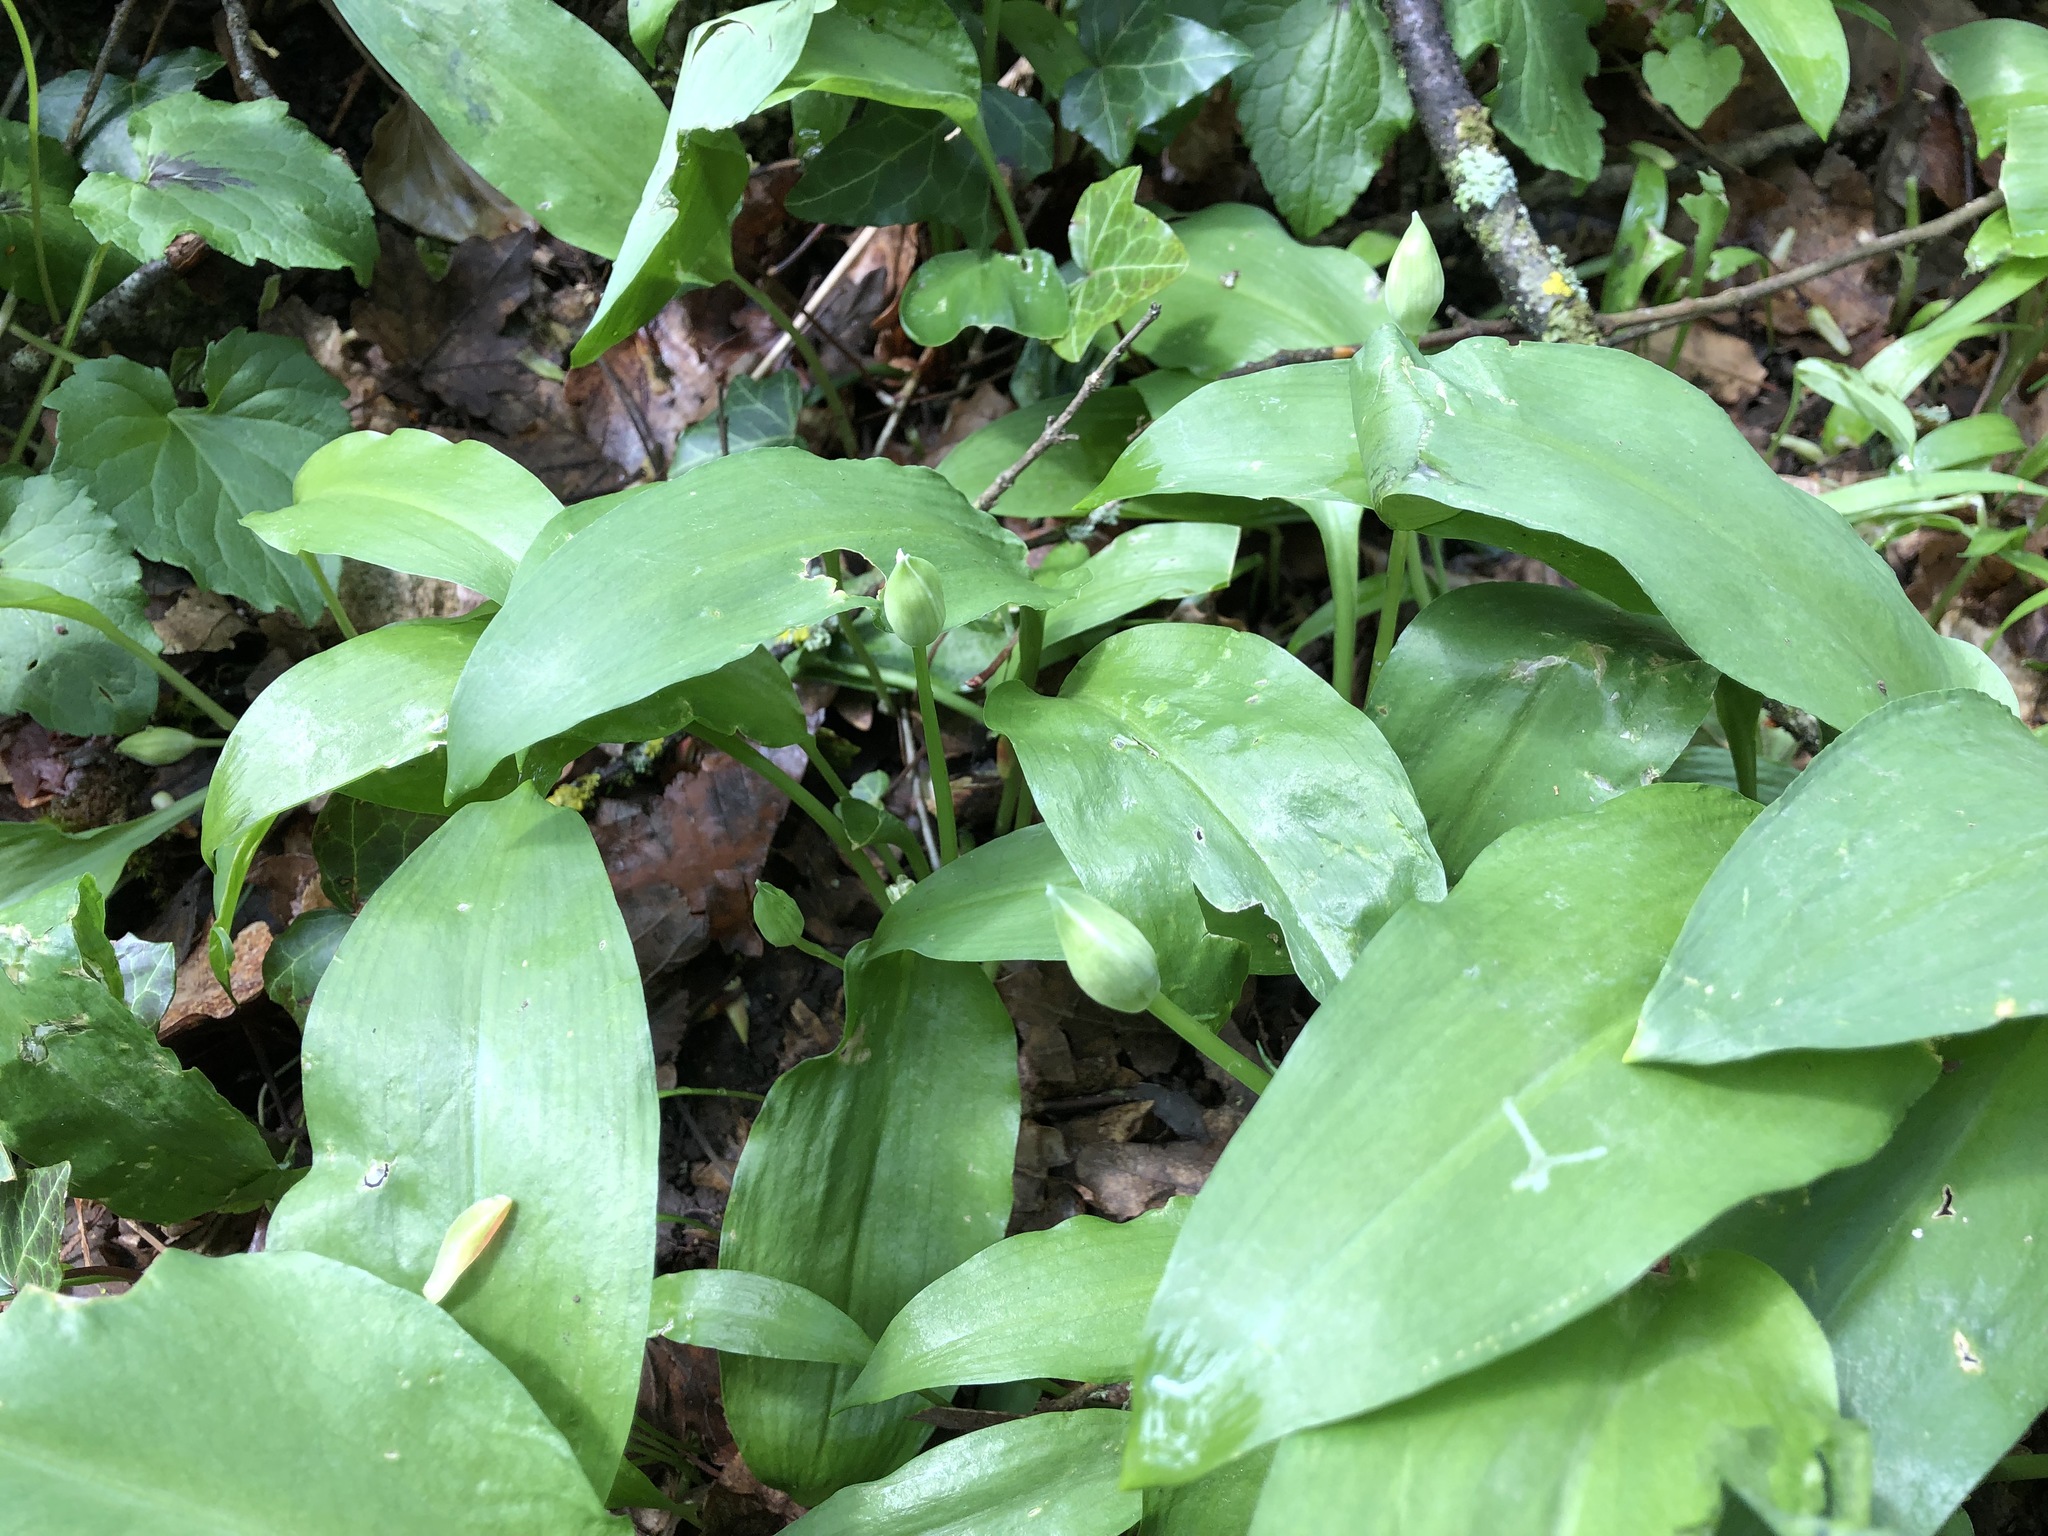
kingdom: Plantae
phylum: Tracheophyta
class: Liliopsida
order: Asparagales
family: Amaryllidaceae
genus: Allium
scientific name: Allium ursinum
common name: Ramsons
